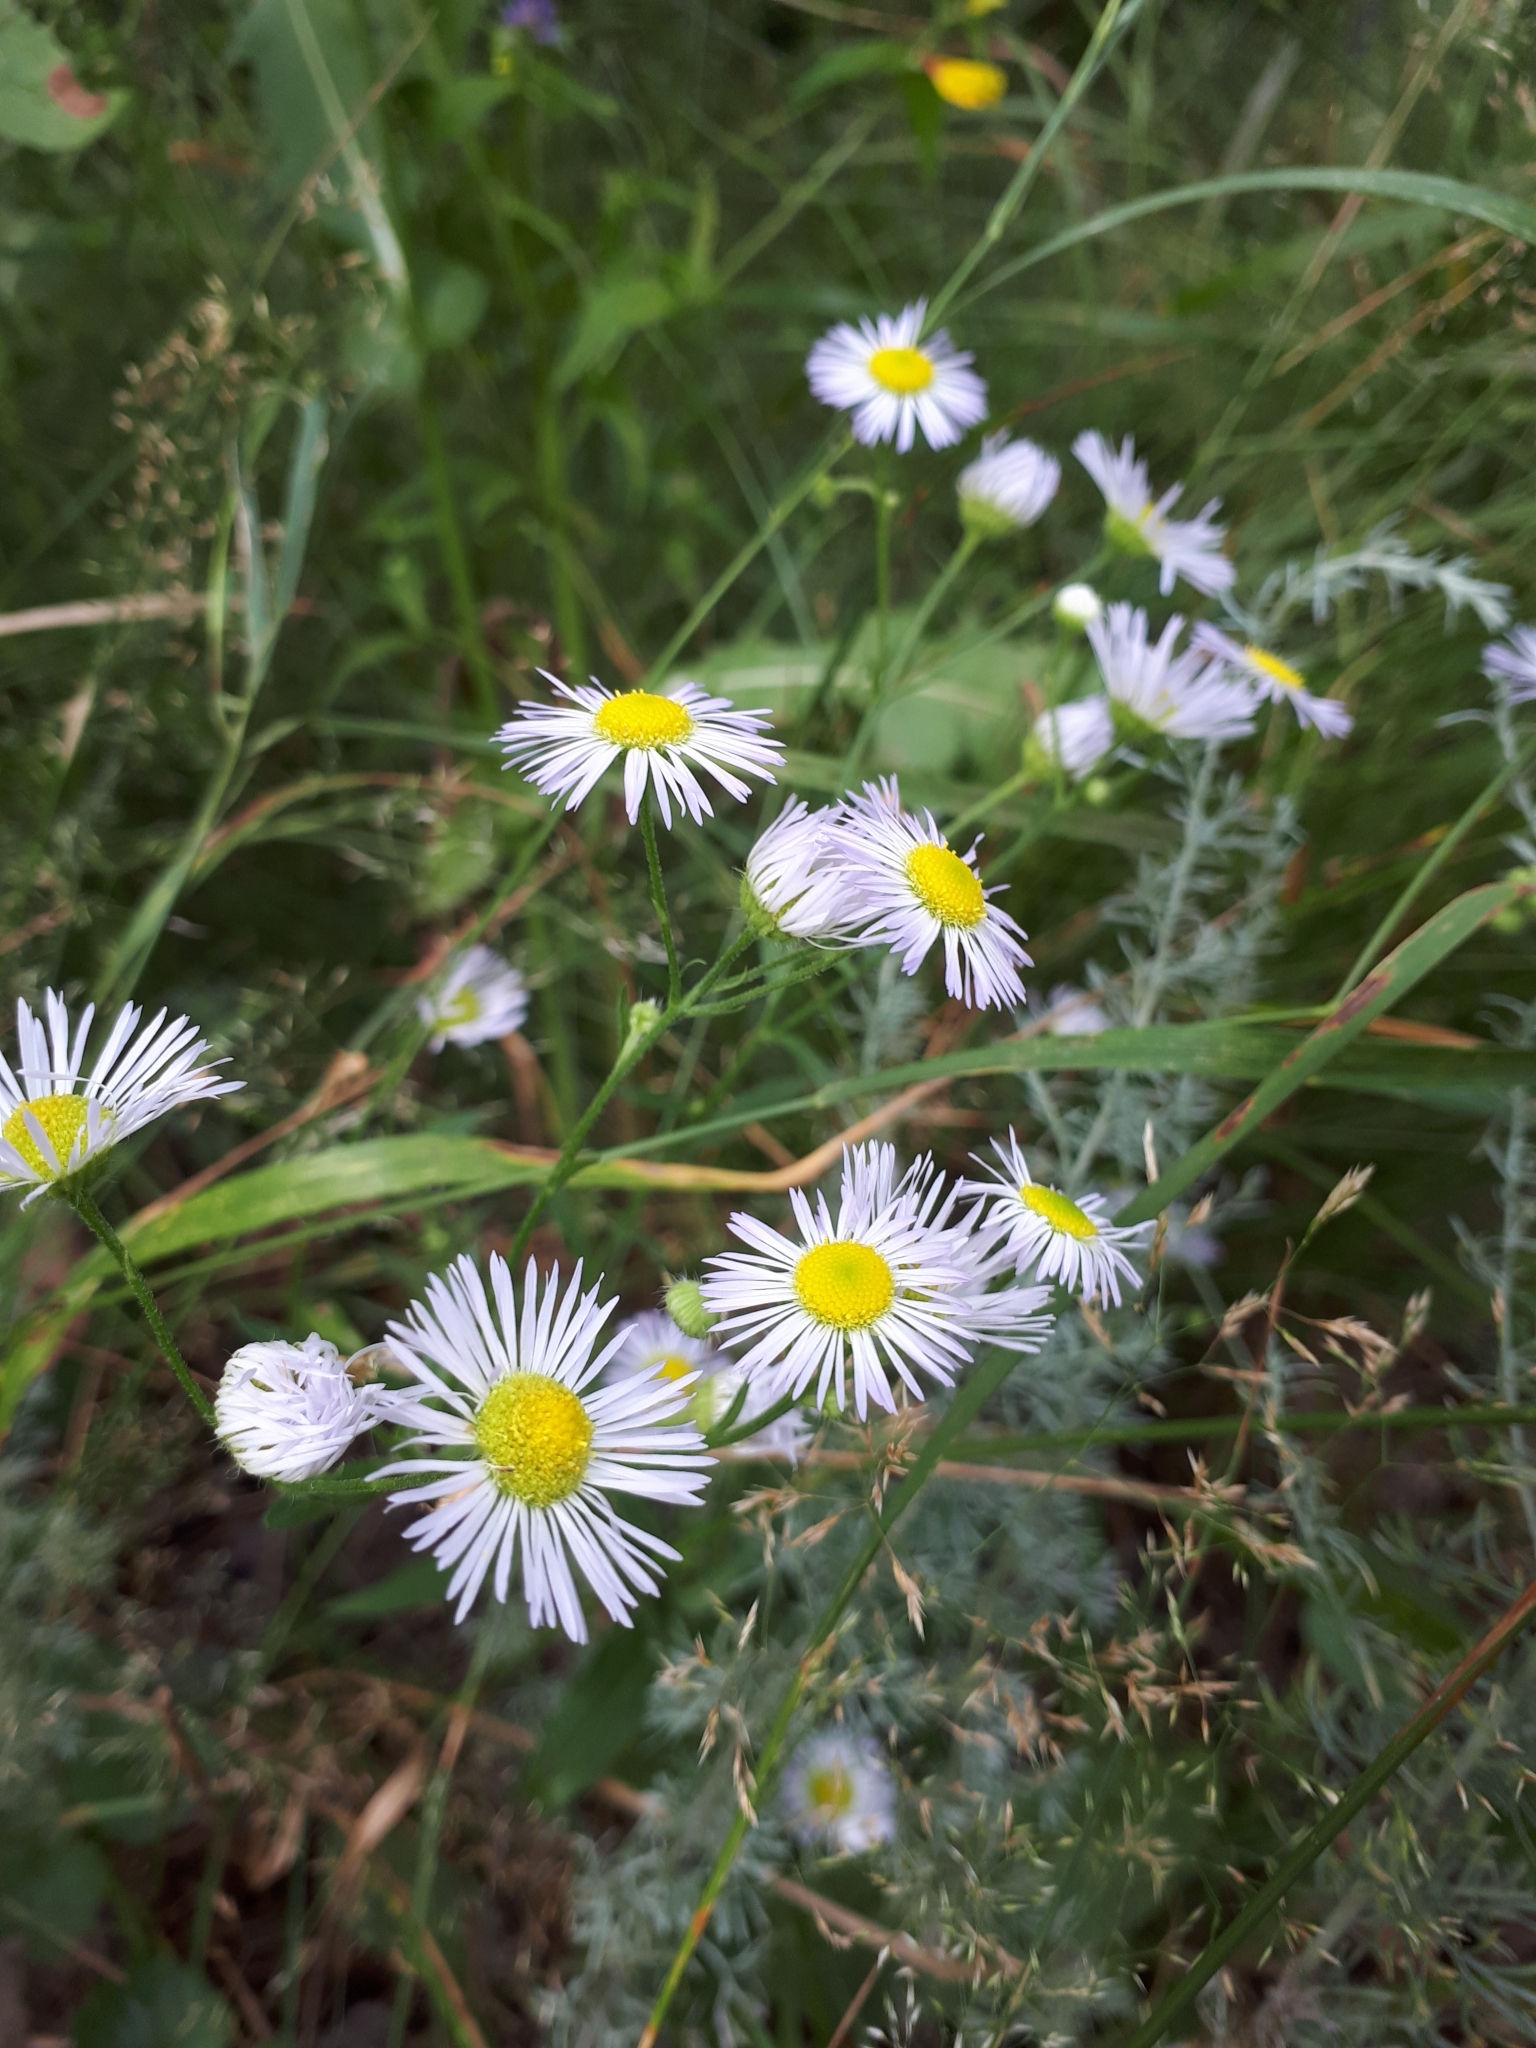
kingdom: Plantae
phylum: Tracheophyta
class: Magnoliopsida
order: Asterales
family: Asteraceae
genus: Erigeron
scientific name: Erigeron annuus
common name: Tall fleabane
